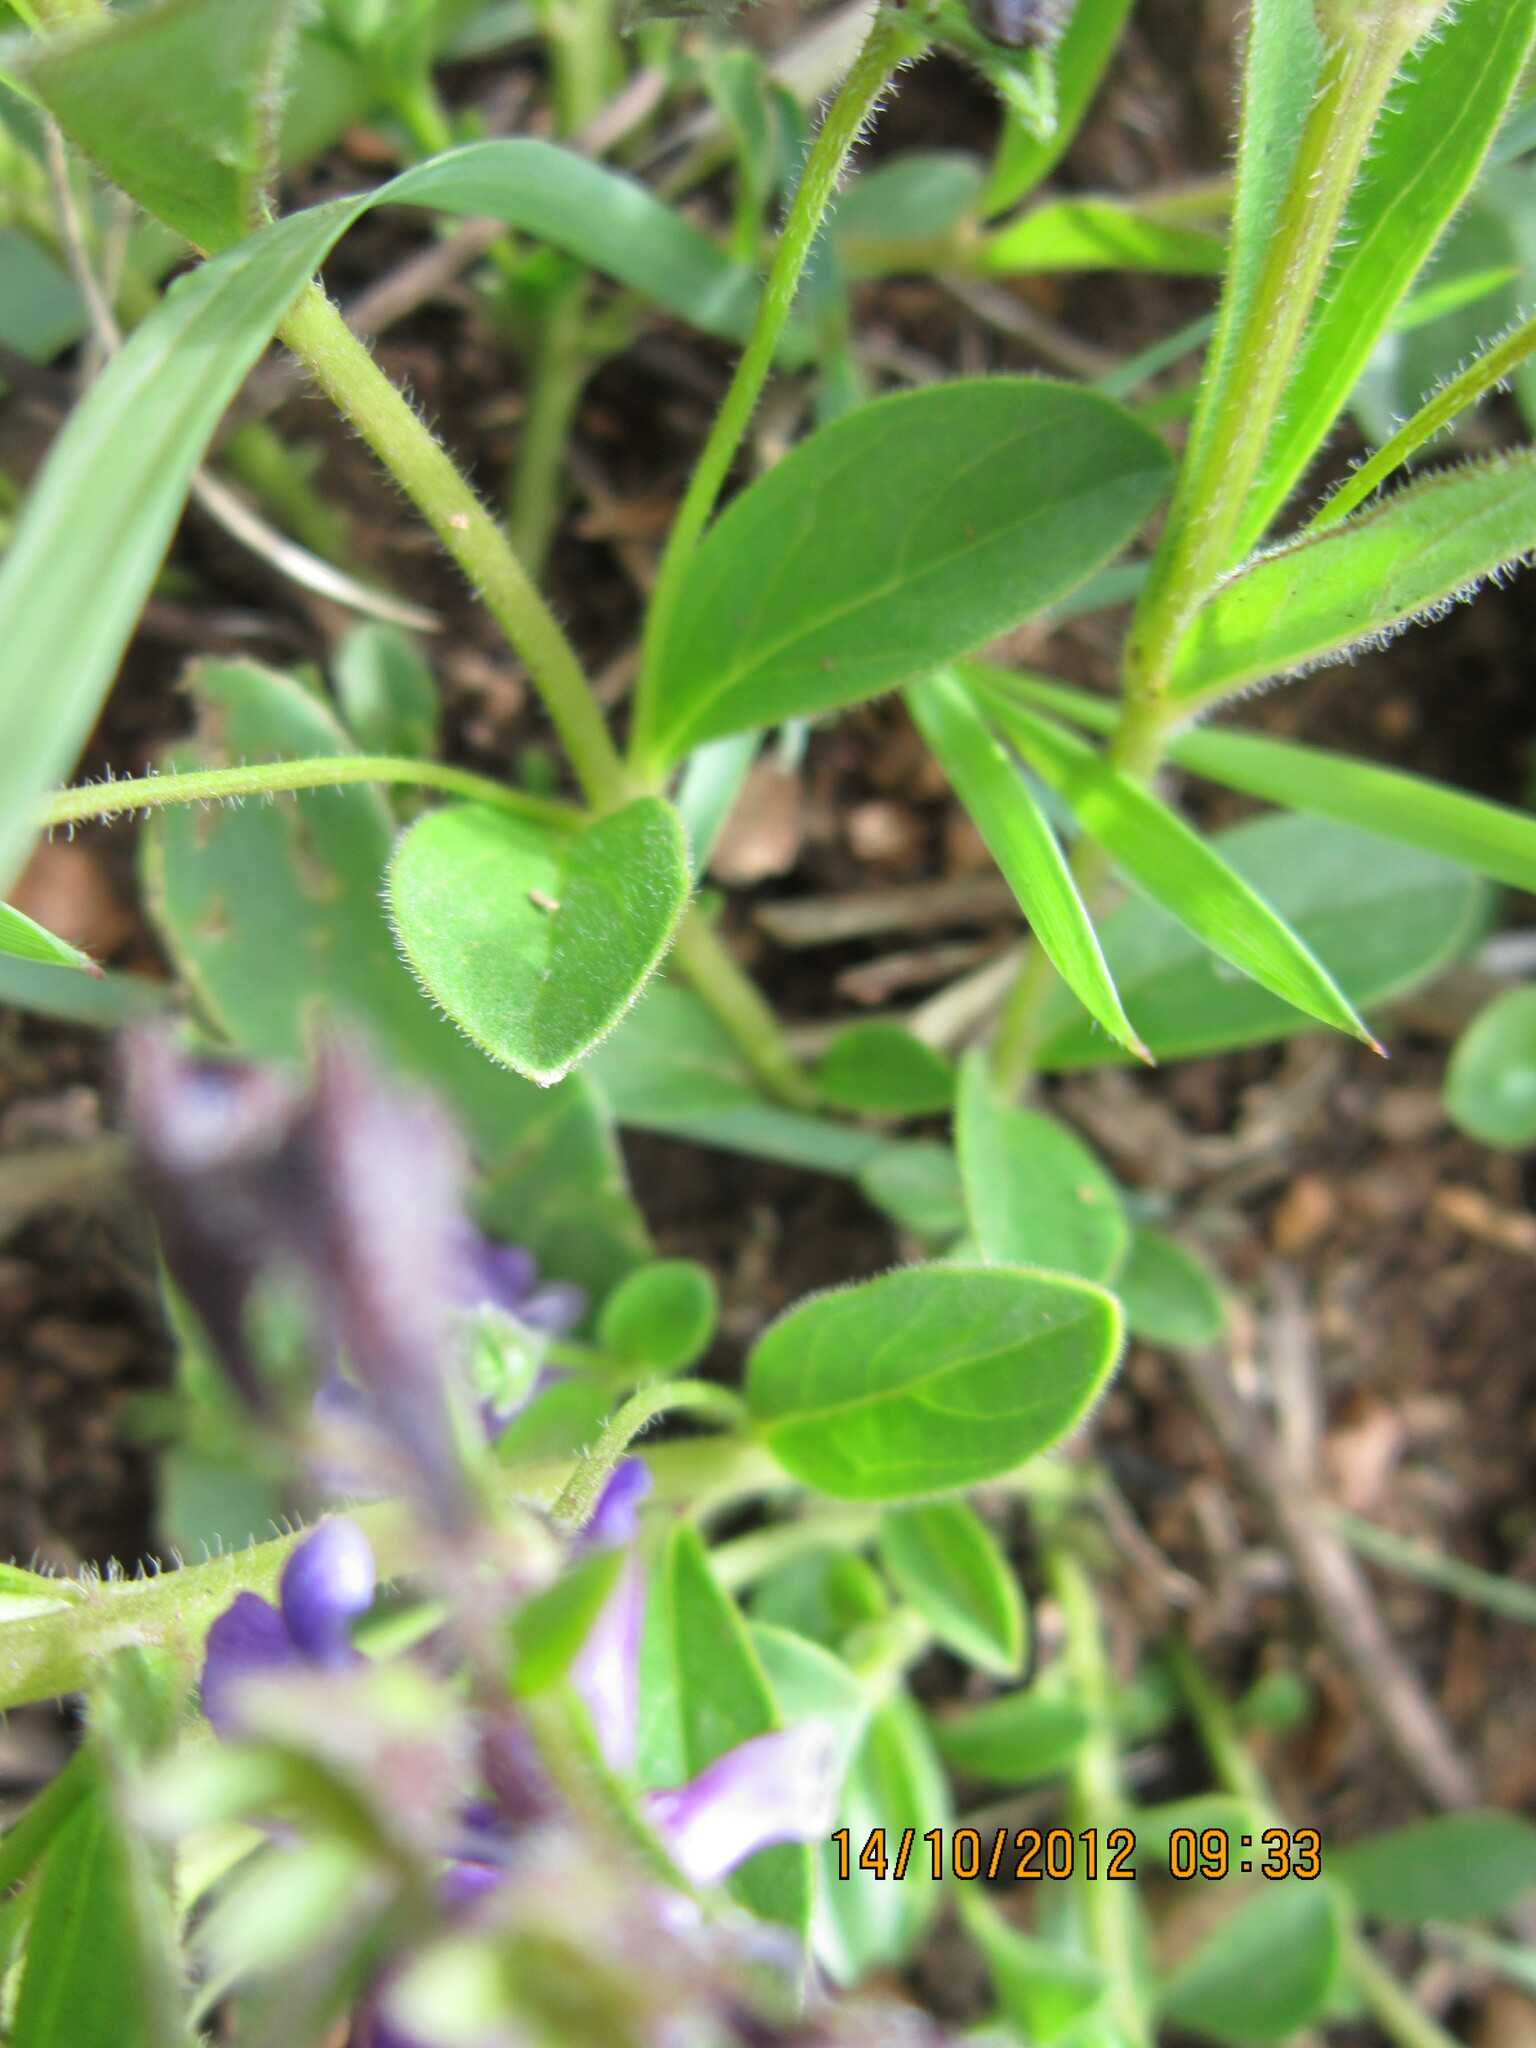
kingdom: Plantae
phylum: Tracheophyta
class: Magnoliopsida
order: Lamiales
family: Lamiaceae
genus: Rotheca
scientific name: Rotheca hirsuta
